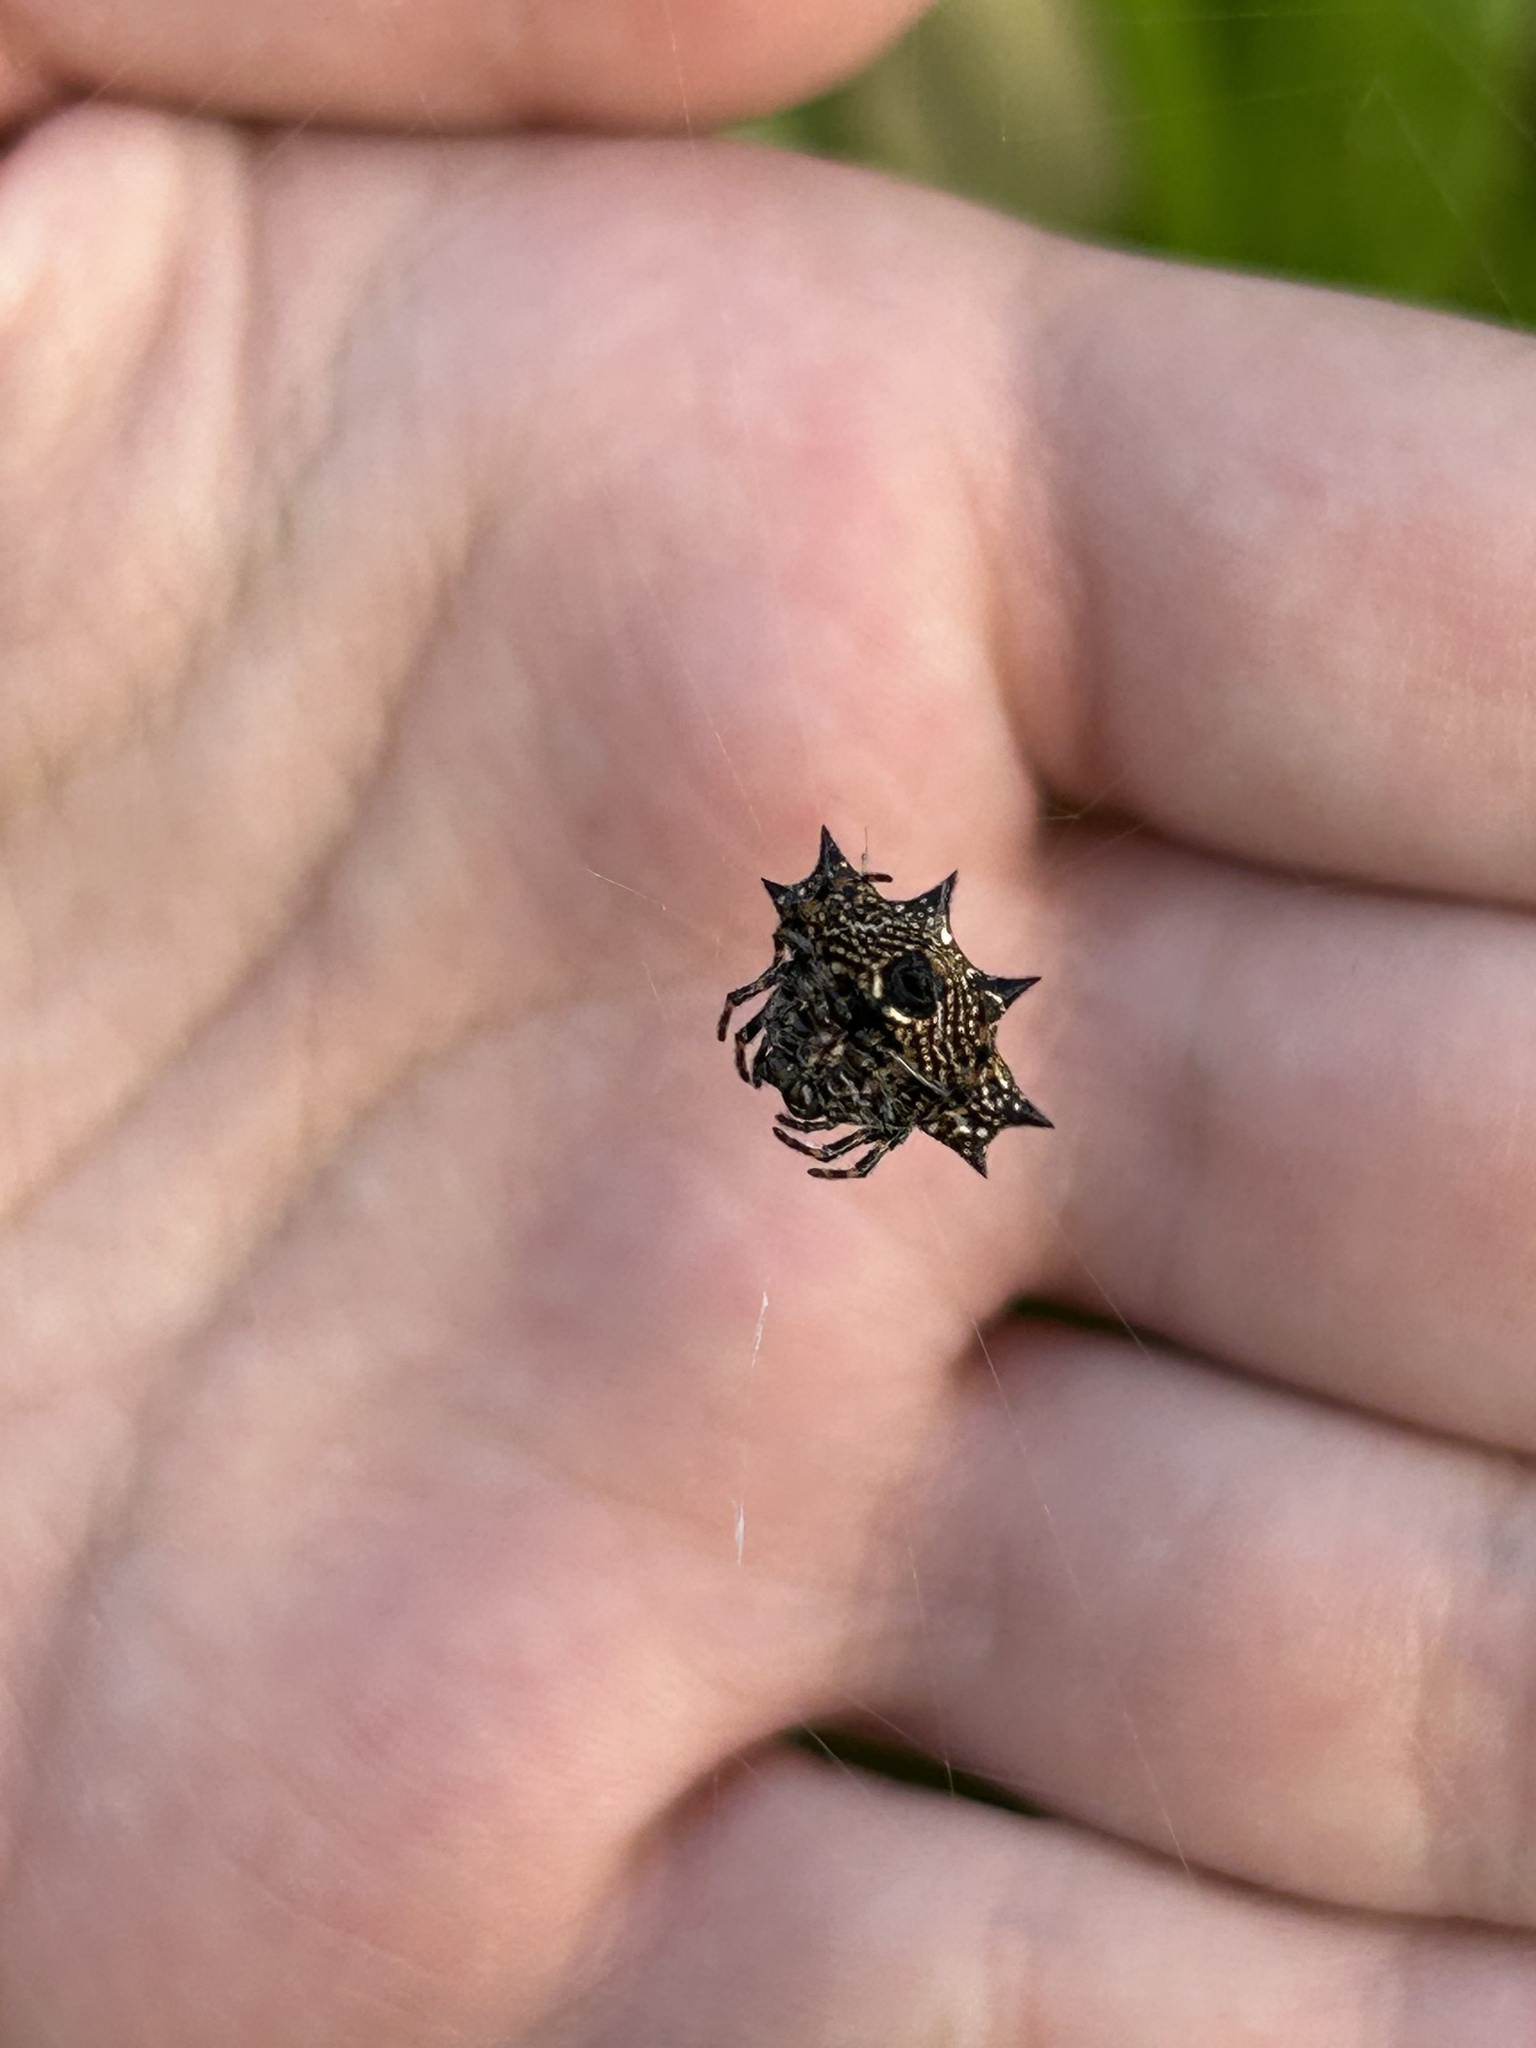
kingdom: Animalia
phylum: Arthropoda
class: Arachnida
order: Araneae
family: Araneidae
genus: Gasteracantha
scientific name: Gasteracantha cancriformis
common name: Orb weavers
